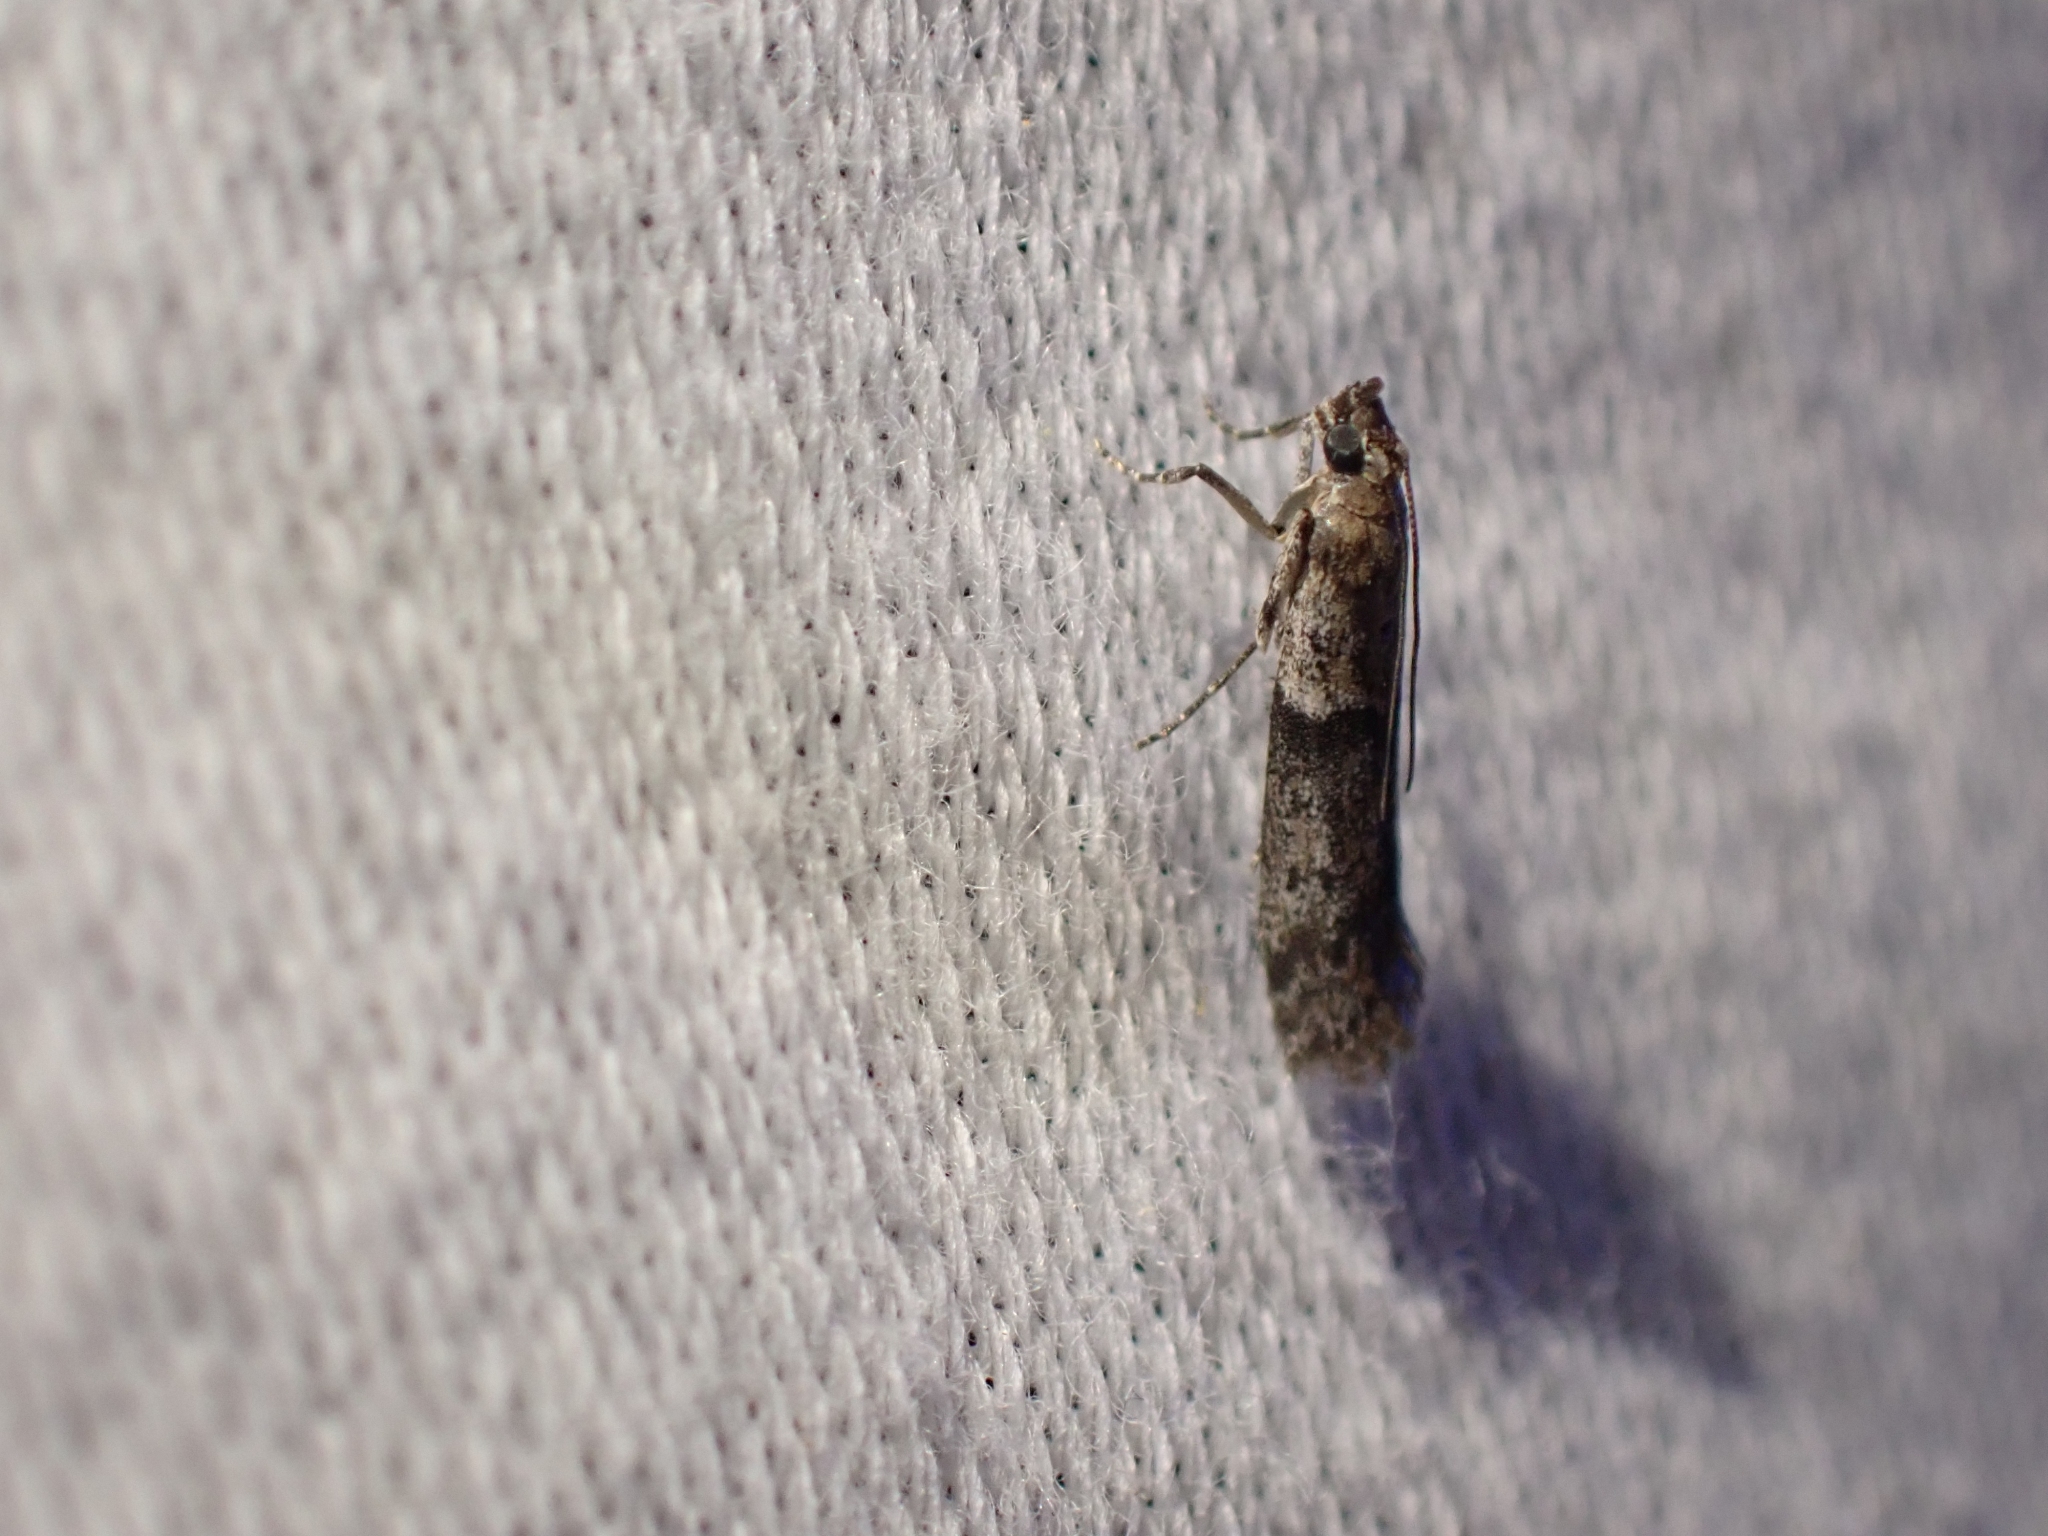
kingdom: Animalia
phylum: Arthropoda
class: Insecta
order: Lepidoptera
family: Pyralidae
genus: Ephestiodes
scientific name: Ephestiodes gilvescentella
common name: Moth
